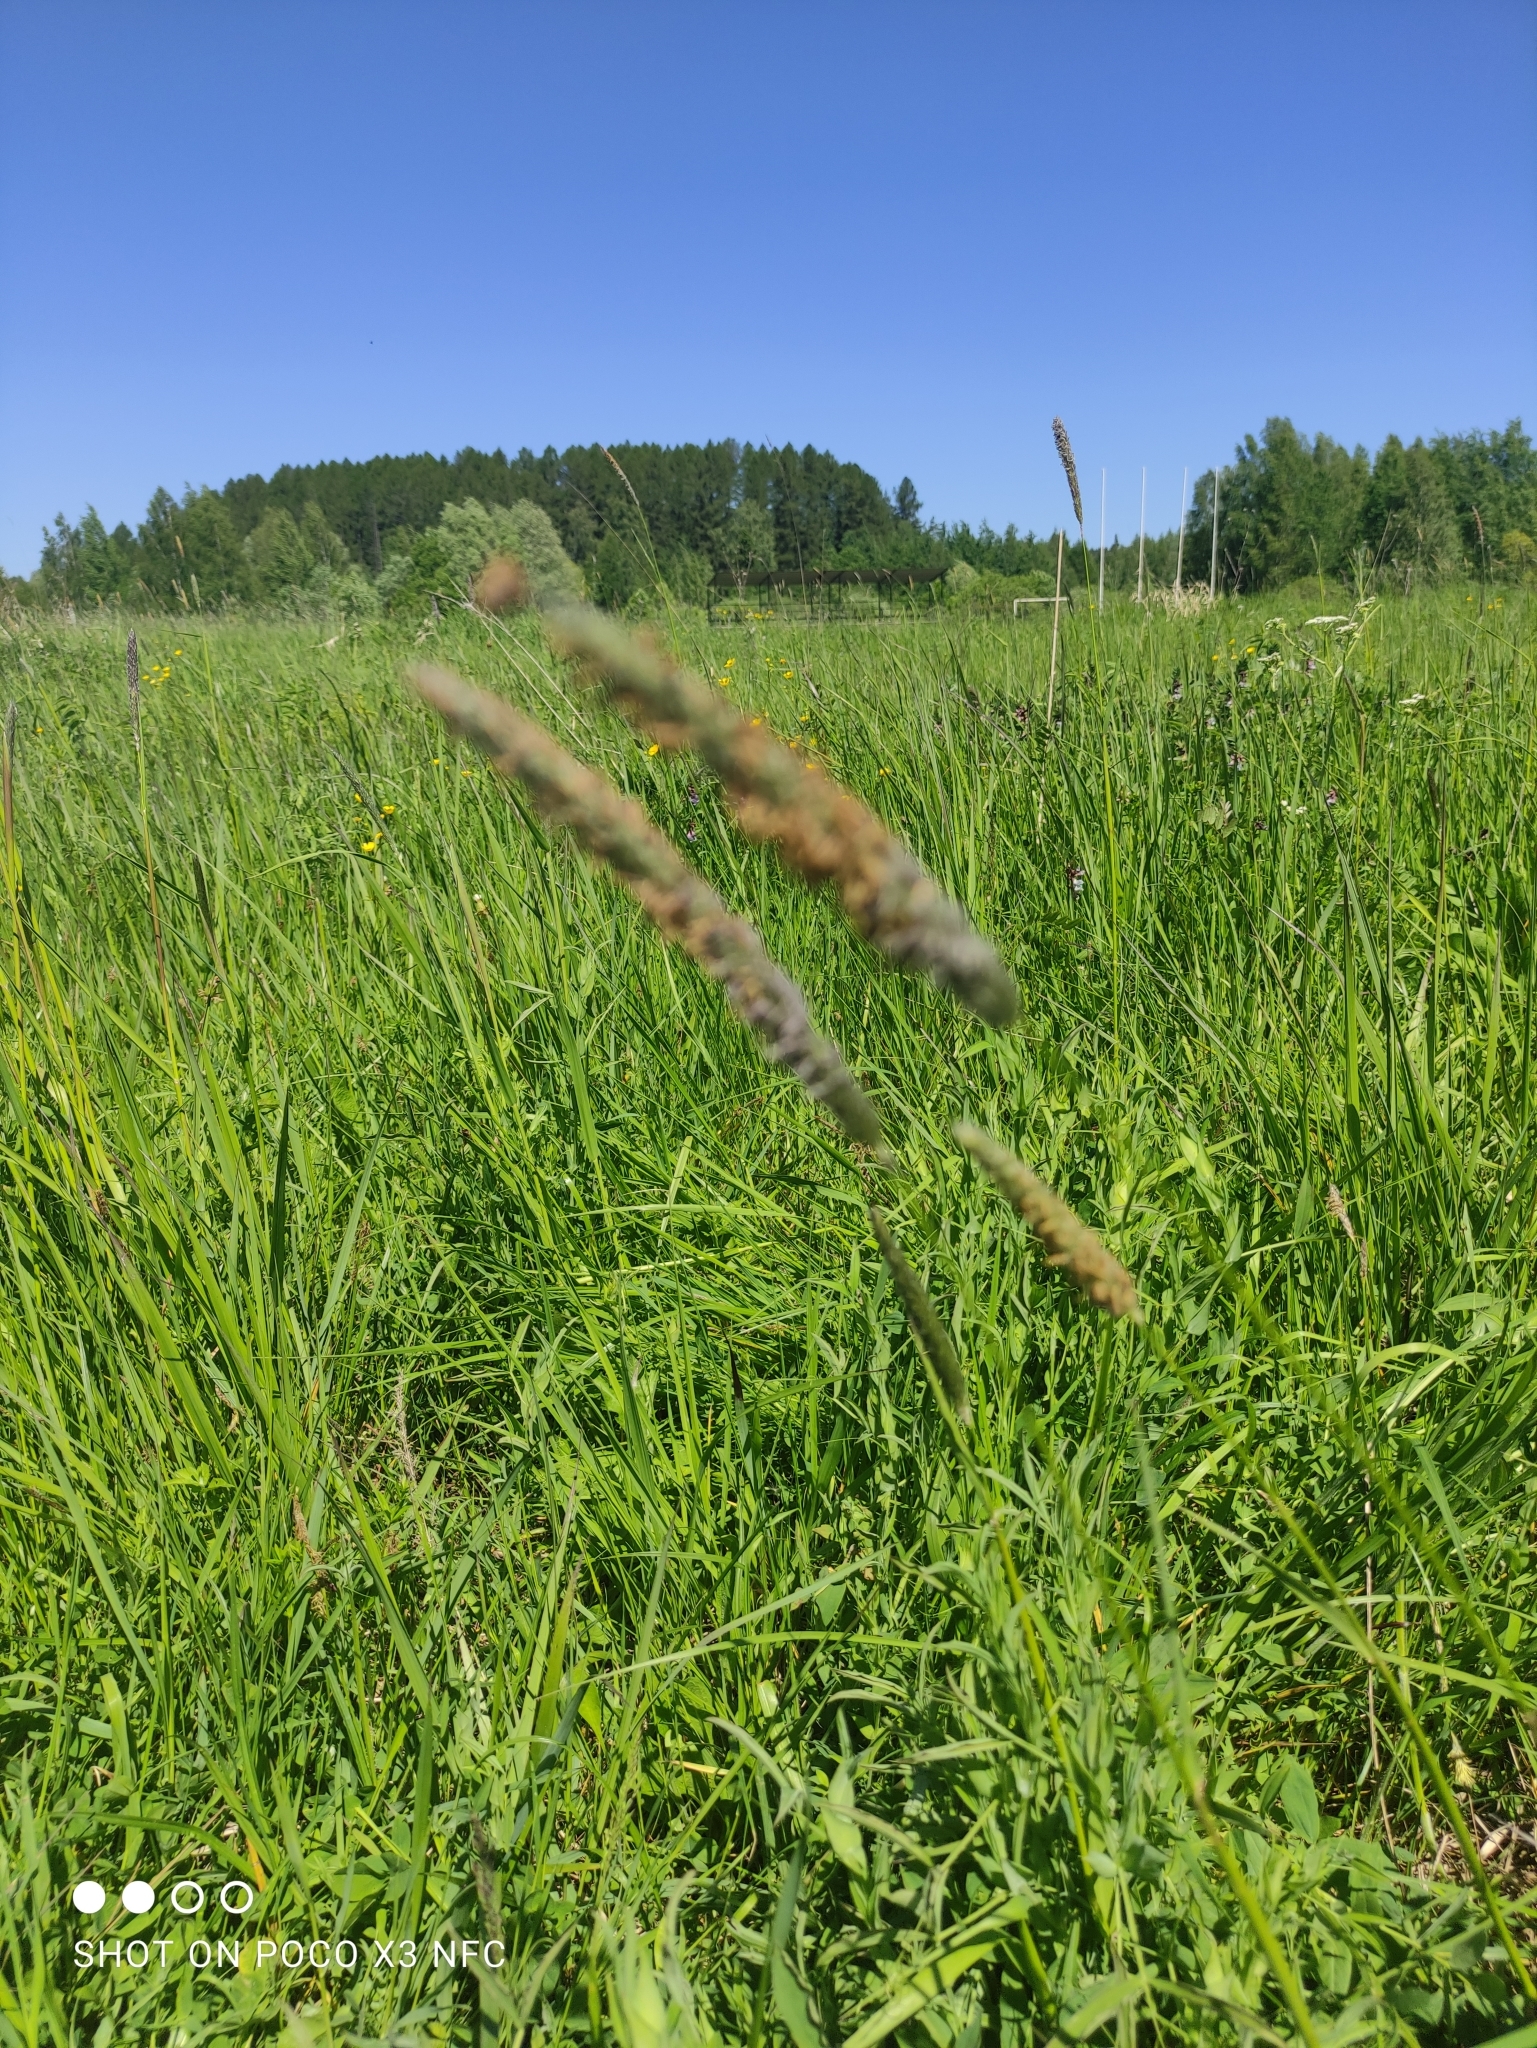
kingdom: Plantae
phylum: Tracheophyta
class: Liliopsida
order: Poales
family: Poaceae
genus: Alopecurus
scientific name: Alopecurus pratensis
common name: Meadow foxtail
